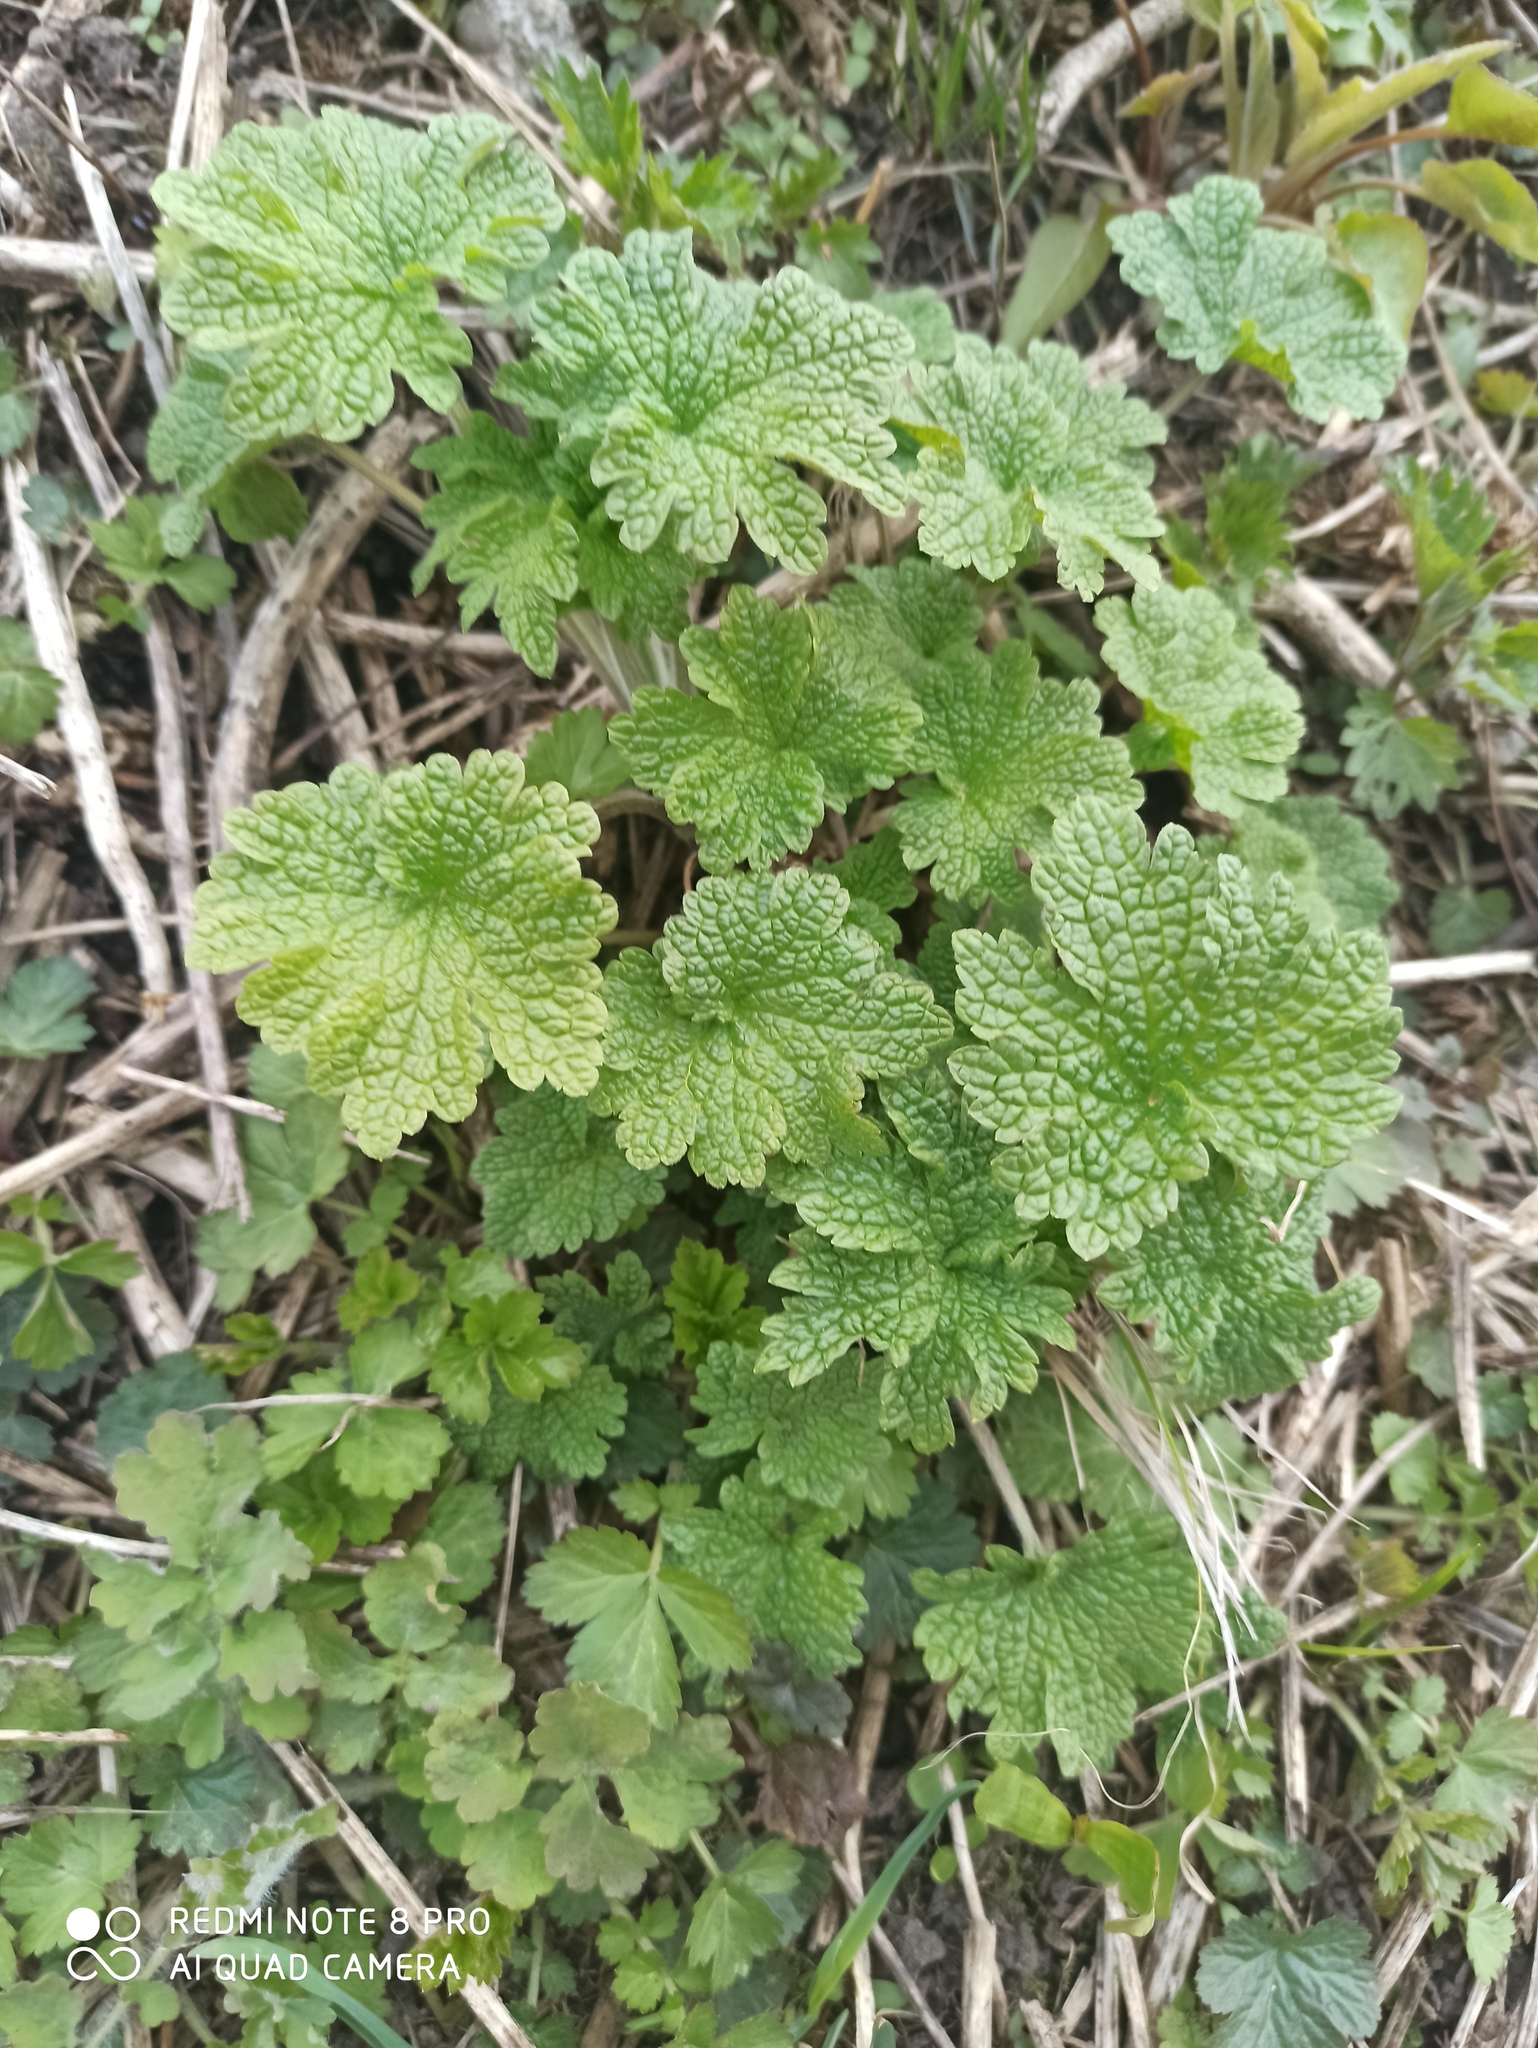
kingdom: Plantae
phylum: Tracheophyta
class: Magnoliopsida
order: Lamiales
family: Lamiaceae
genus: Leonurus
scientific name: Leonurus quinquelobatus
